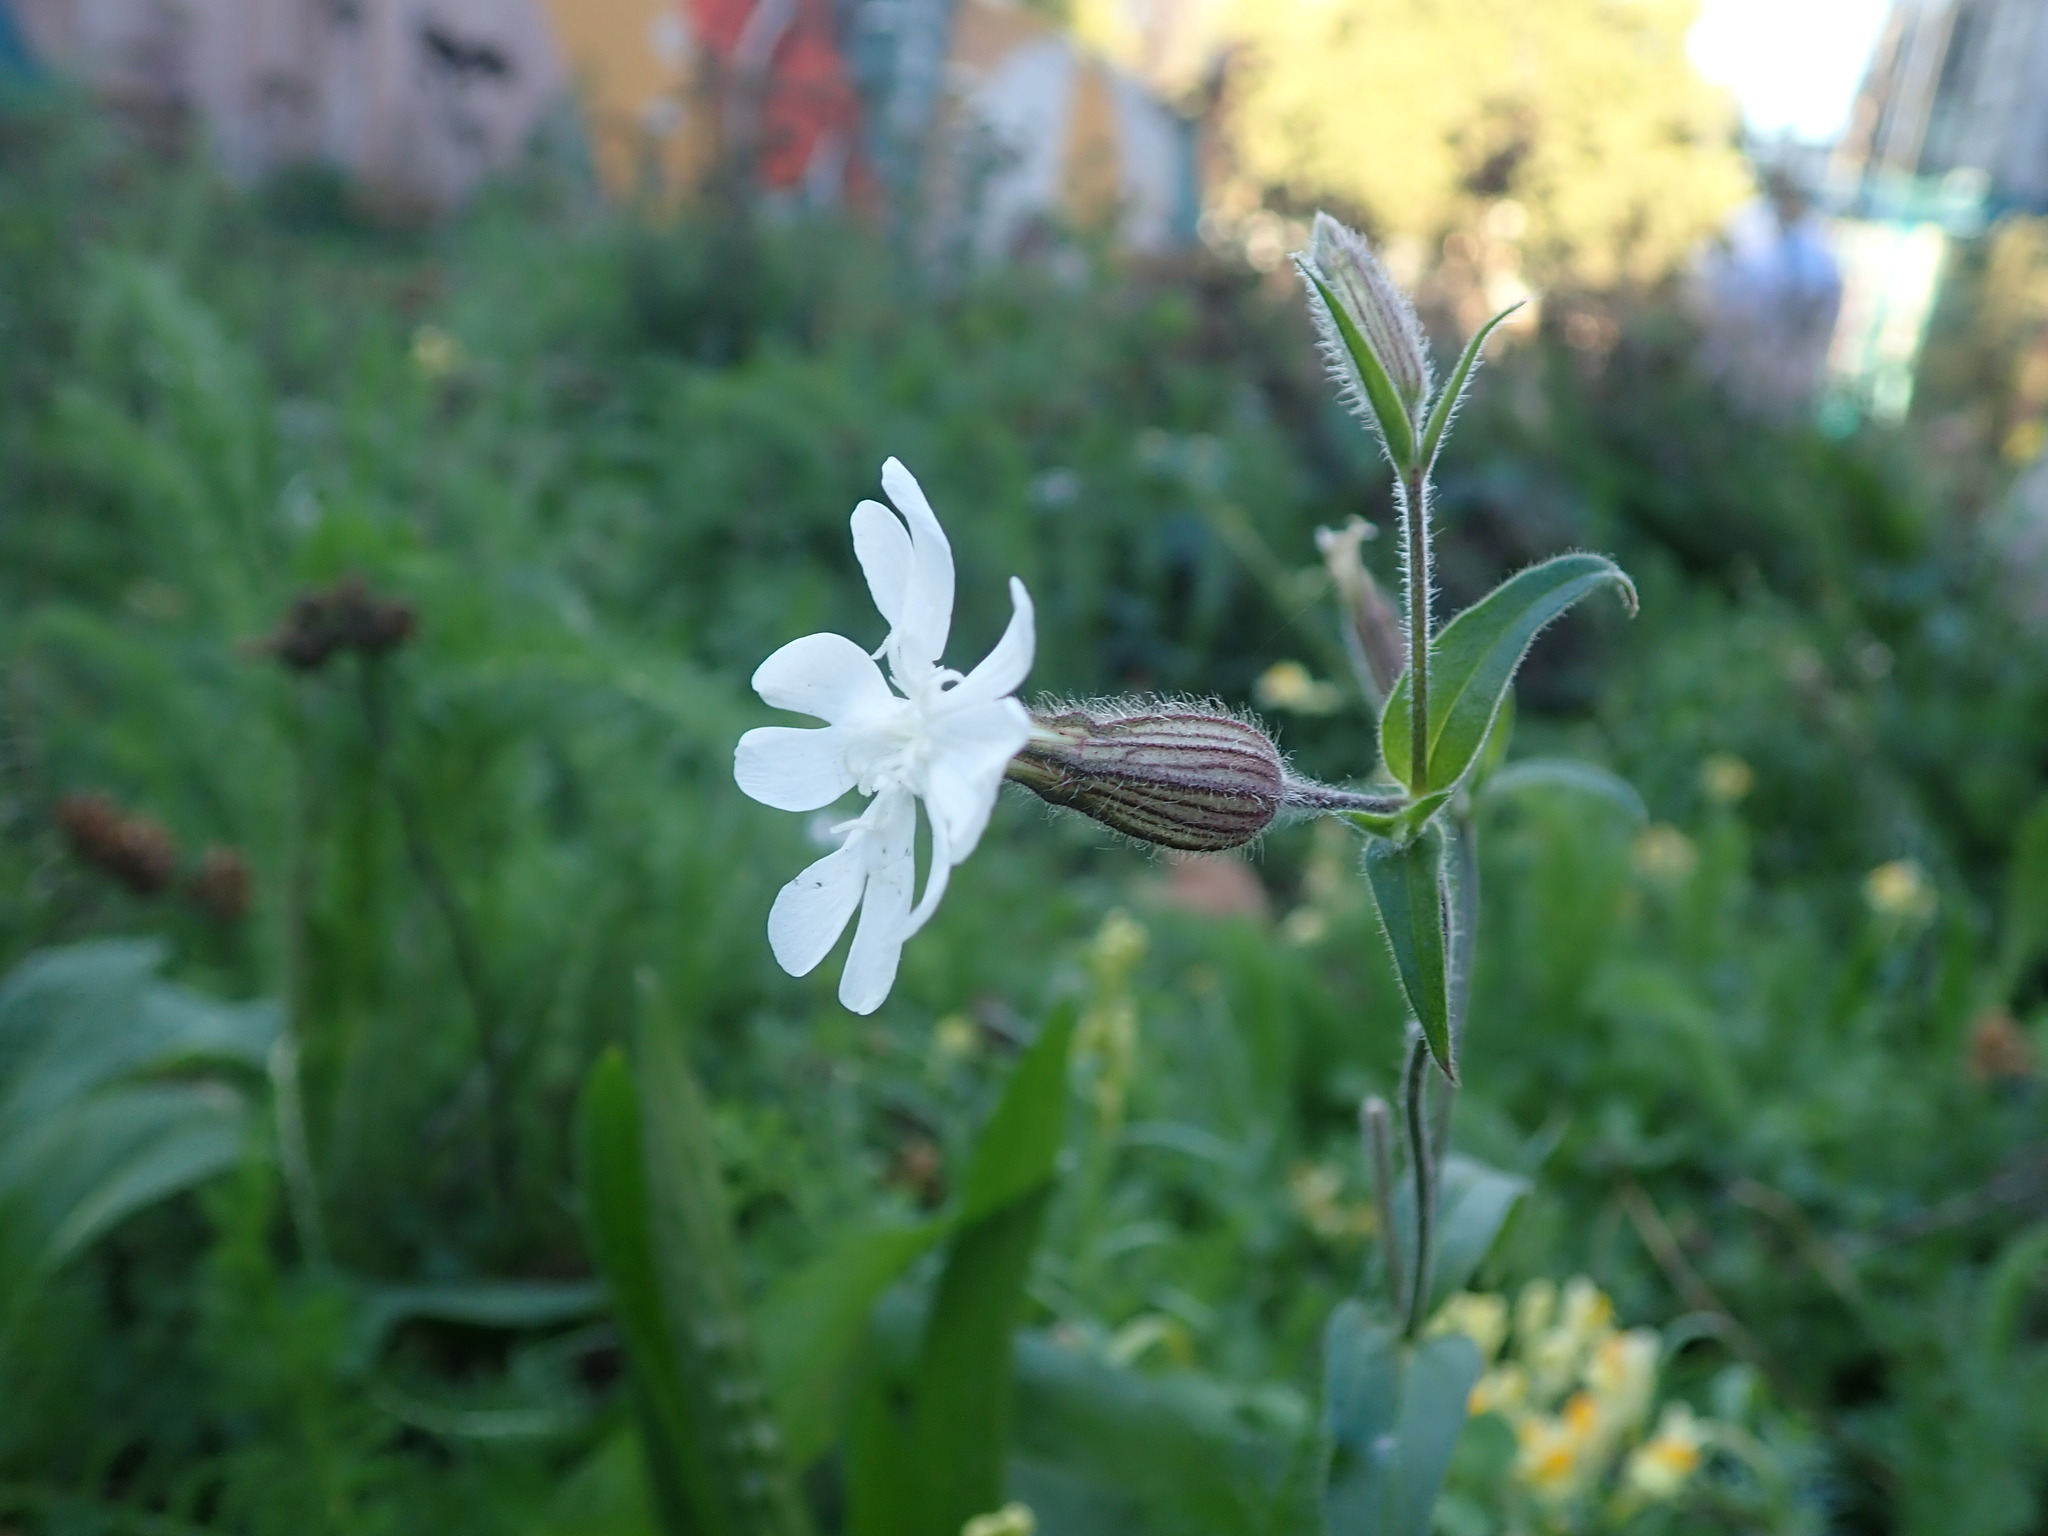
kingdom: Plantae
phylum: Tracheophyta
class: Magnoliopsida
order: Caryophyllales
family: Caryophyllaceae
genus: Silene
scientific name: Silene latifolia
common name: White campion
